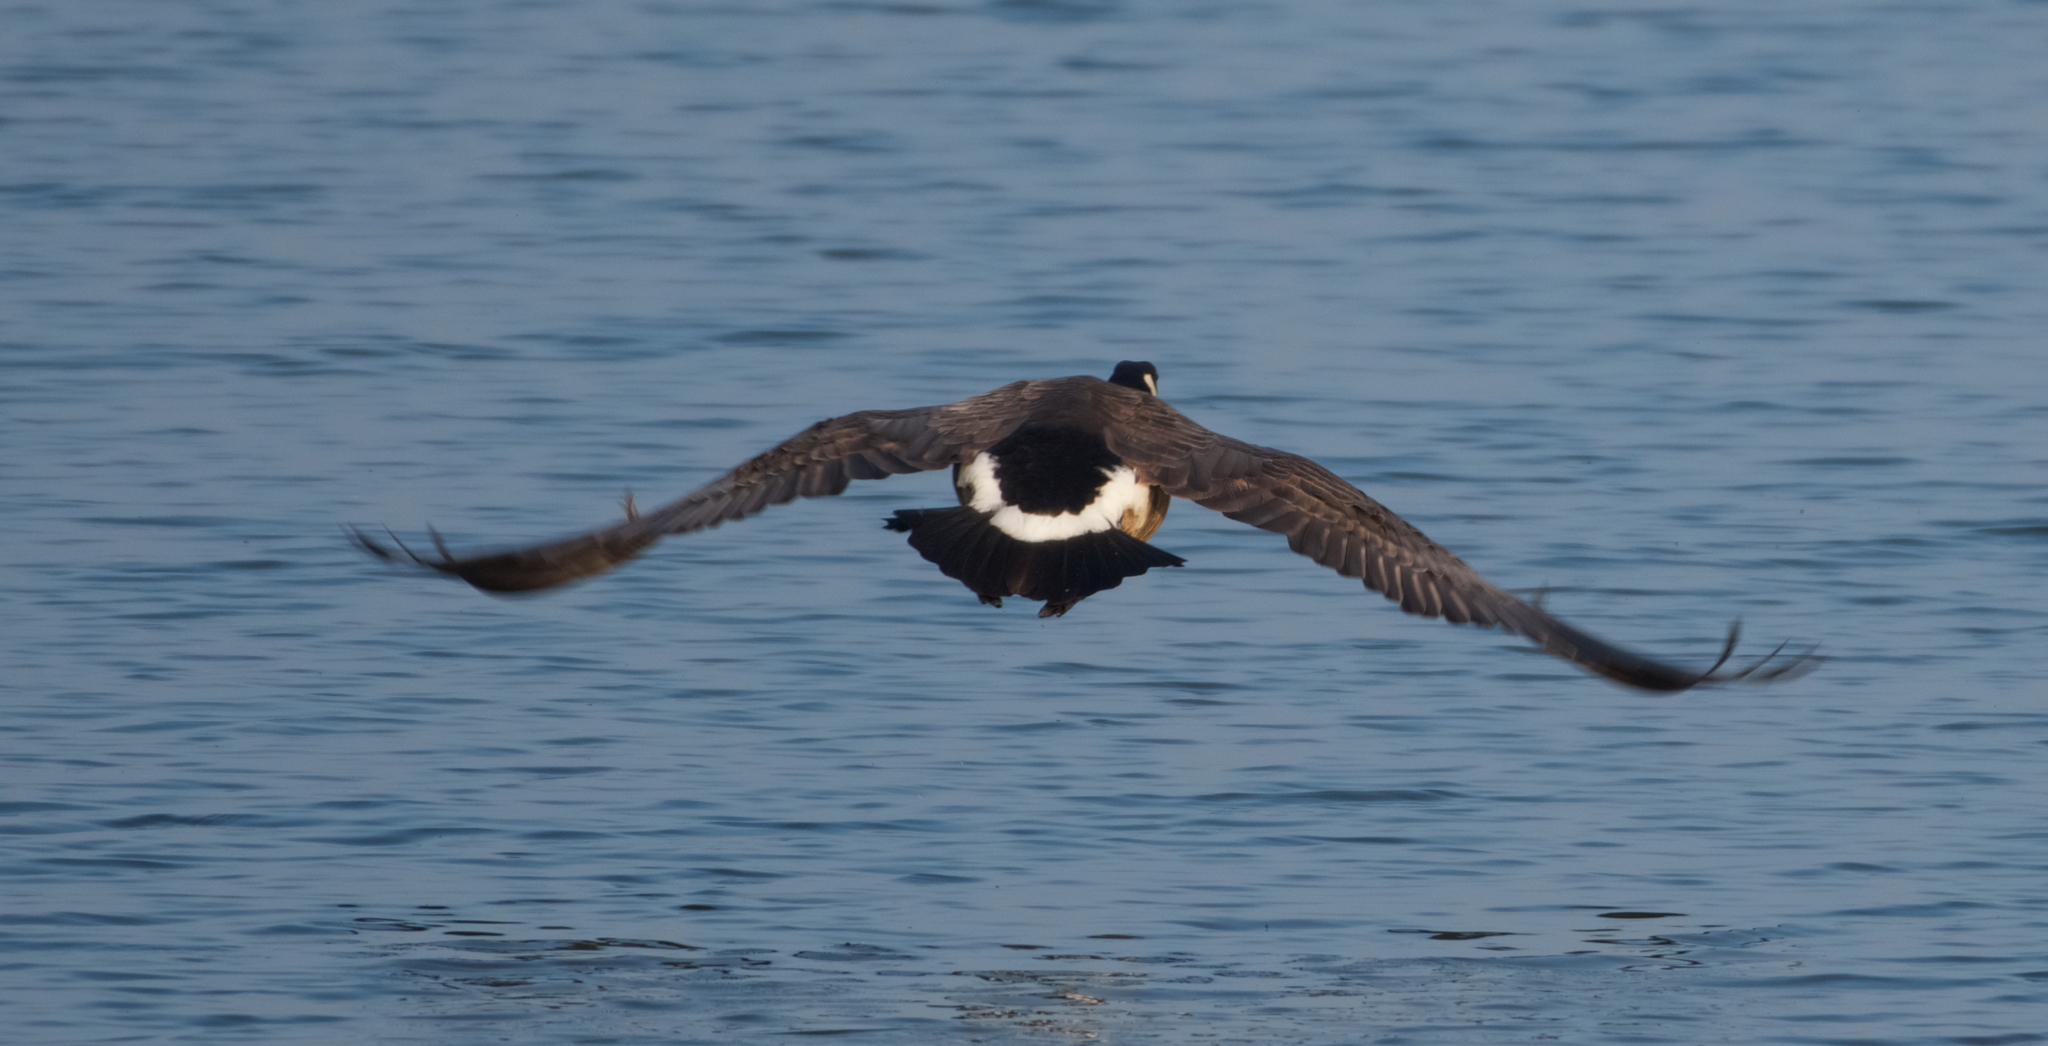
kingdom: Animalia
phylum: Chordata
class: Aves
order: Anseriformes
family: Anatidae
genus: Branta
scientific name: Branta canadensis
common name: Canada goose
